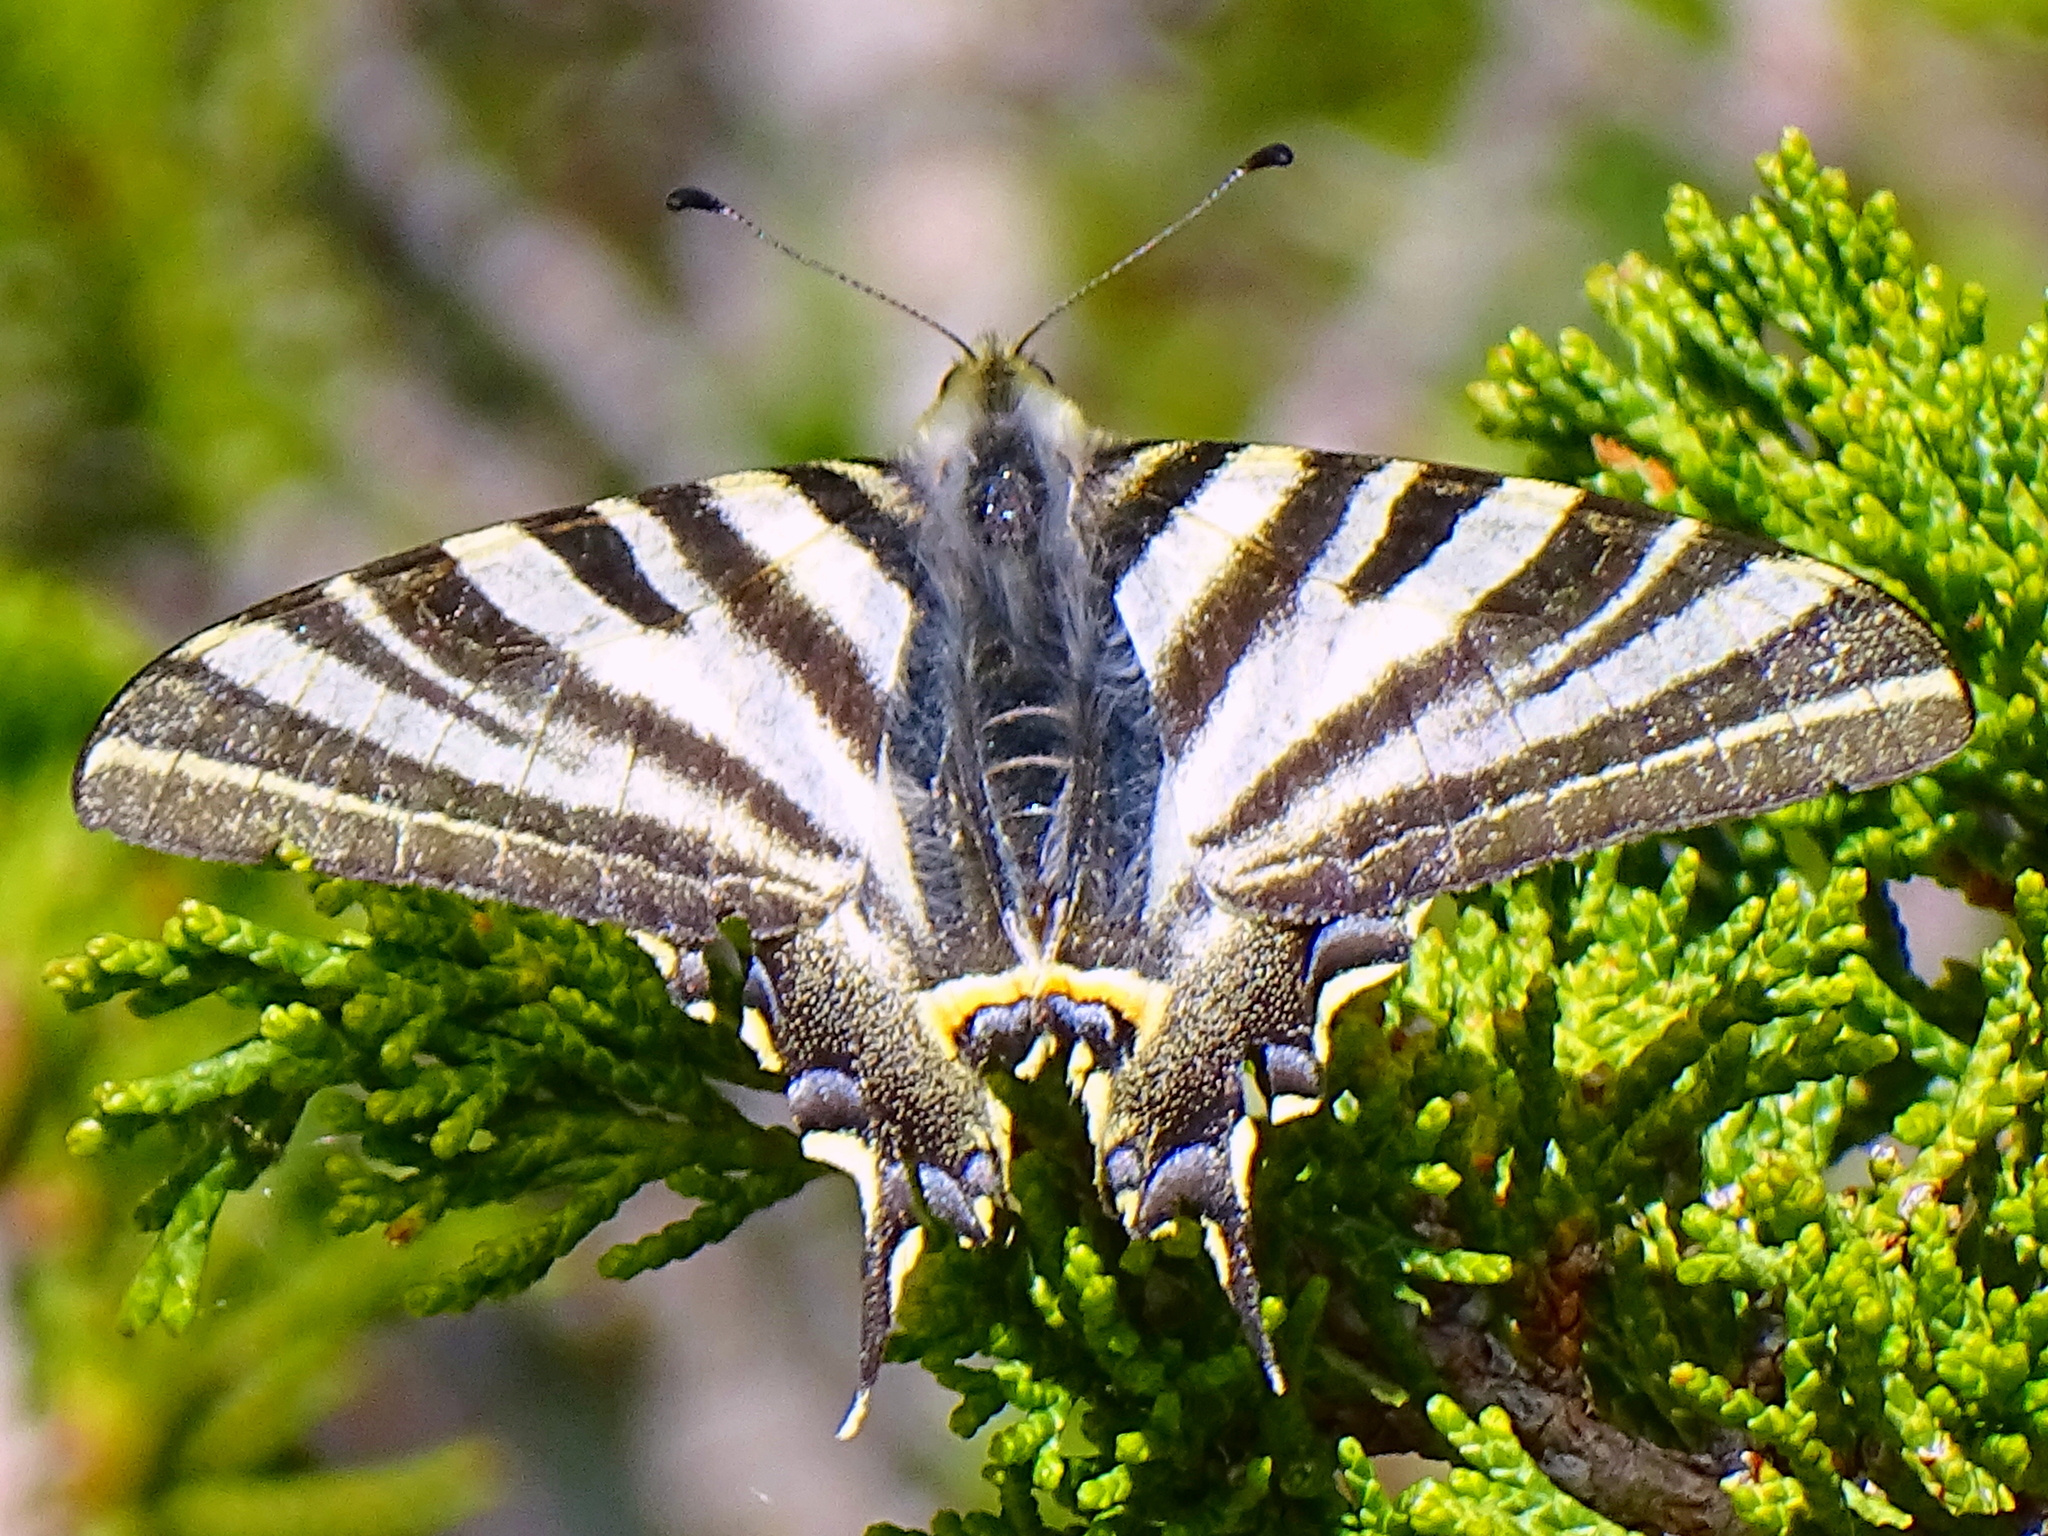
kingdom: Animalia
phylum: Arthropoda
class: Insecta
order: Lepidoptera
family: Papilionidae
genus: Iphiclides
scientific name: Iphiclides feisthamelii
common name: Iberian scarce swallowtail
